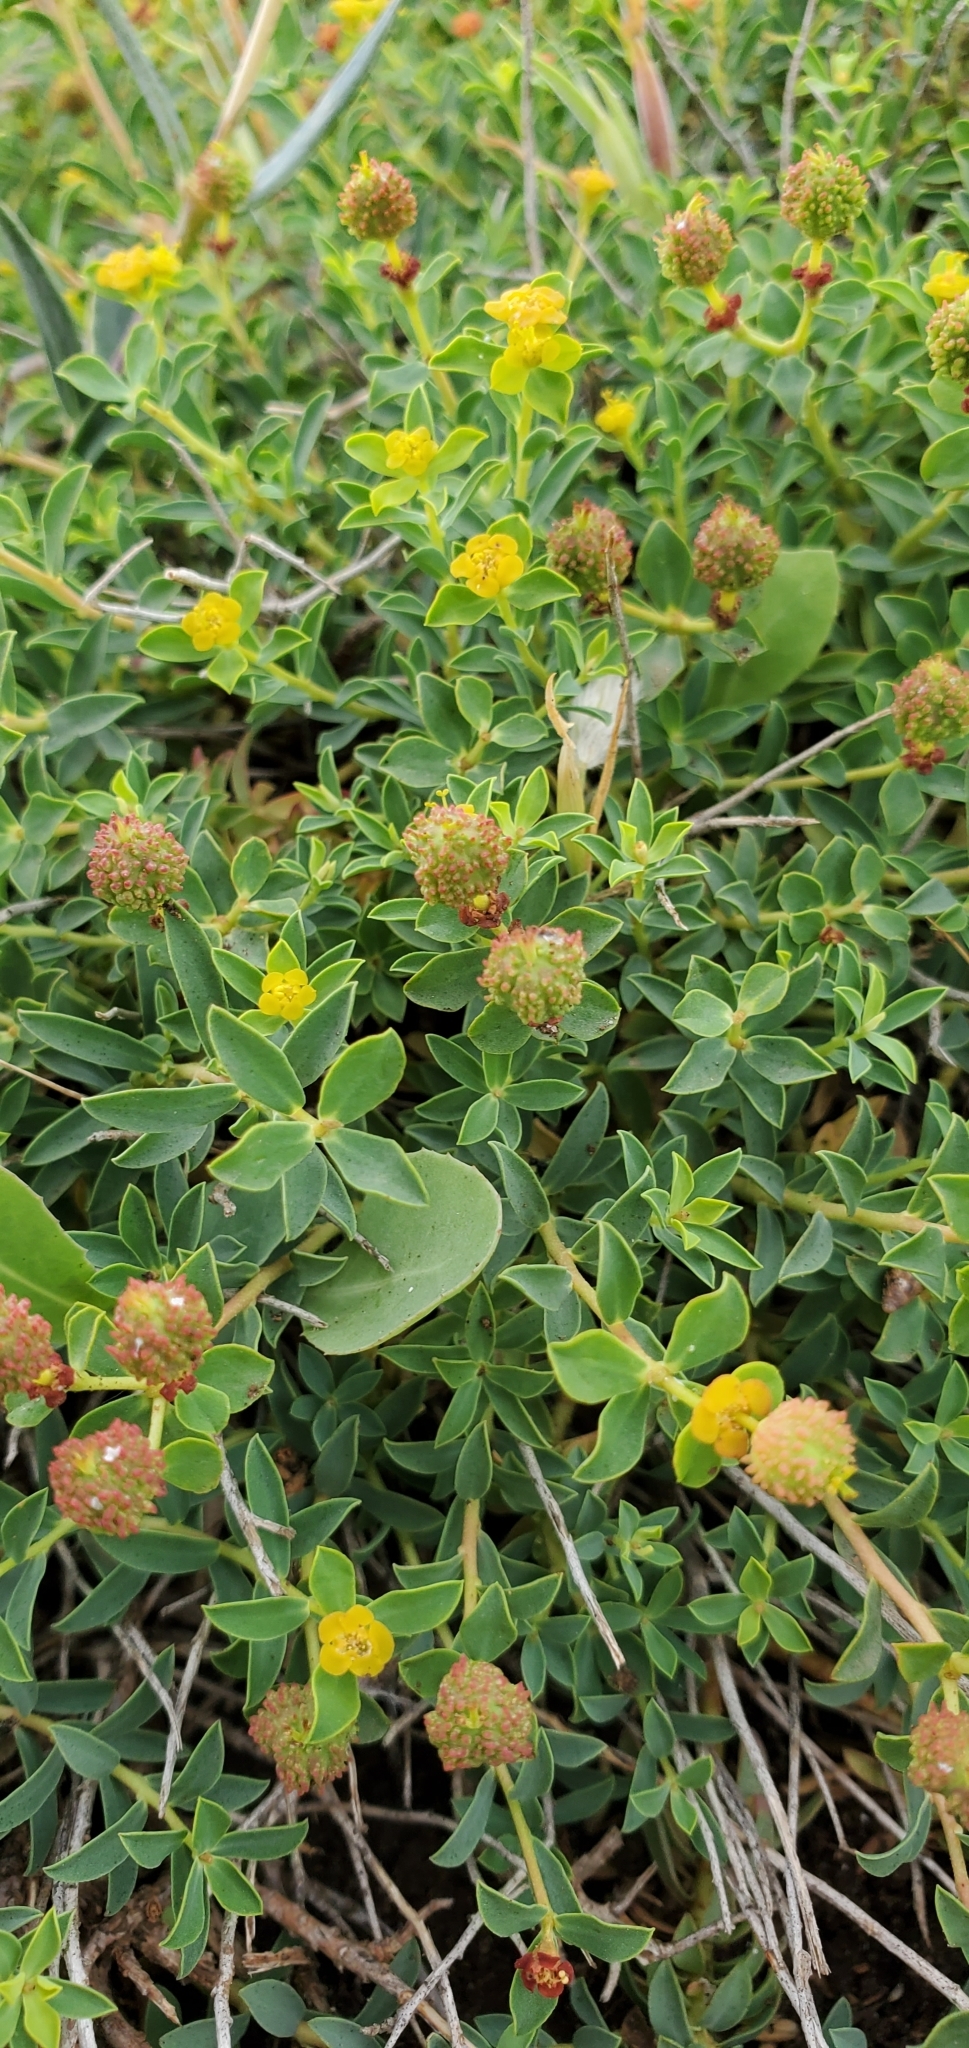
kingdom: Plantae
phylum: Tracheophyta
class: Magnoliopsida
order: Malpighiales
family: Euphorbiaceae
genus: Euphorbia
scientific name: Euphorbia spinosa
